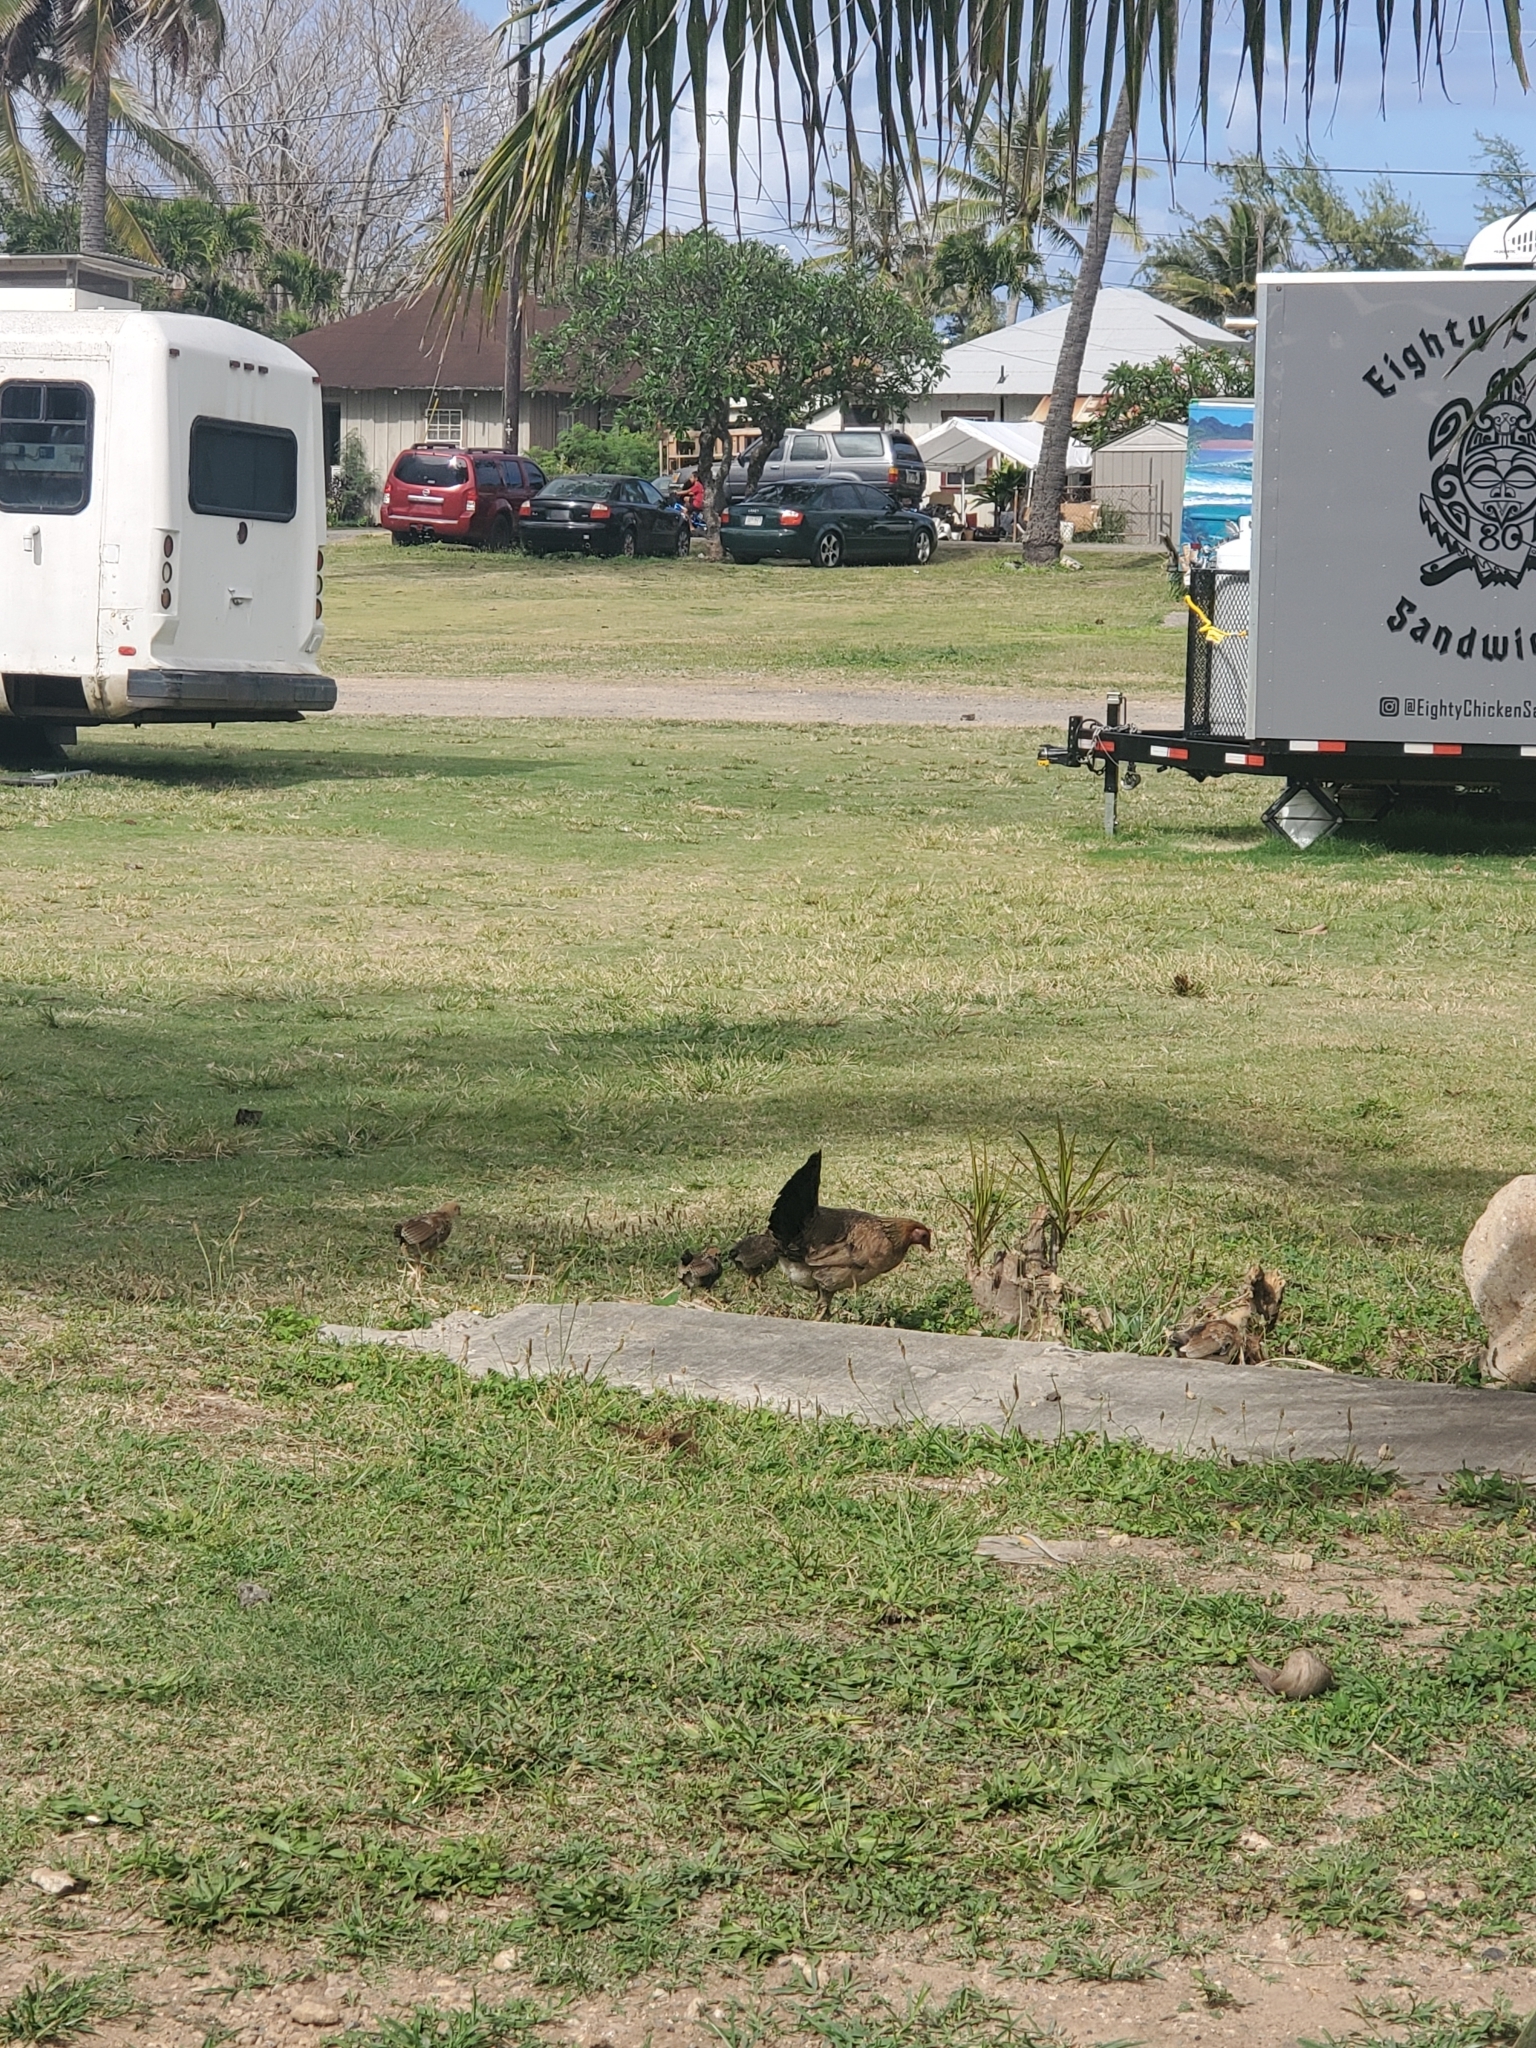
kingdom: Animalia
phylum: Chordata
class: Aves
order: Galliformes
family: Phasianidae
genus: Gallus
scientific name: Gallus gallus
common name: Red junglefowl
